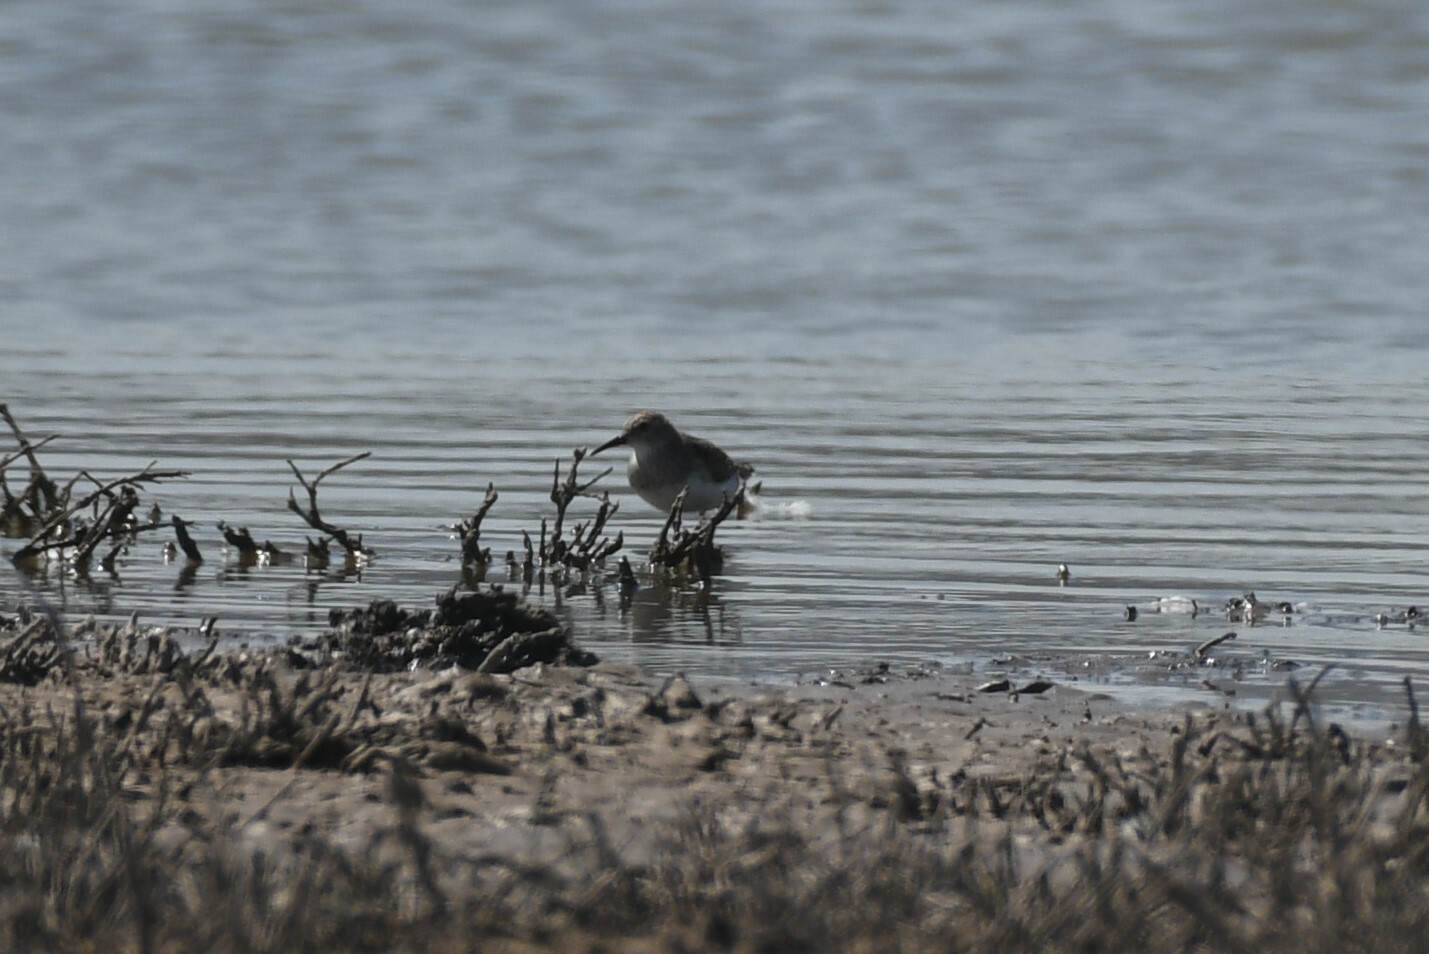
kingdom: Animalia
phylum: Chordata
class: Aves
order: Charadriiformes
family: Scolopacidae
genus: Calidris
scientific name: Calidris minutilla
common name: Least sandpiper
